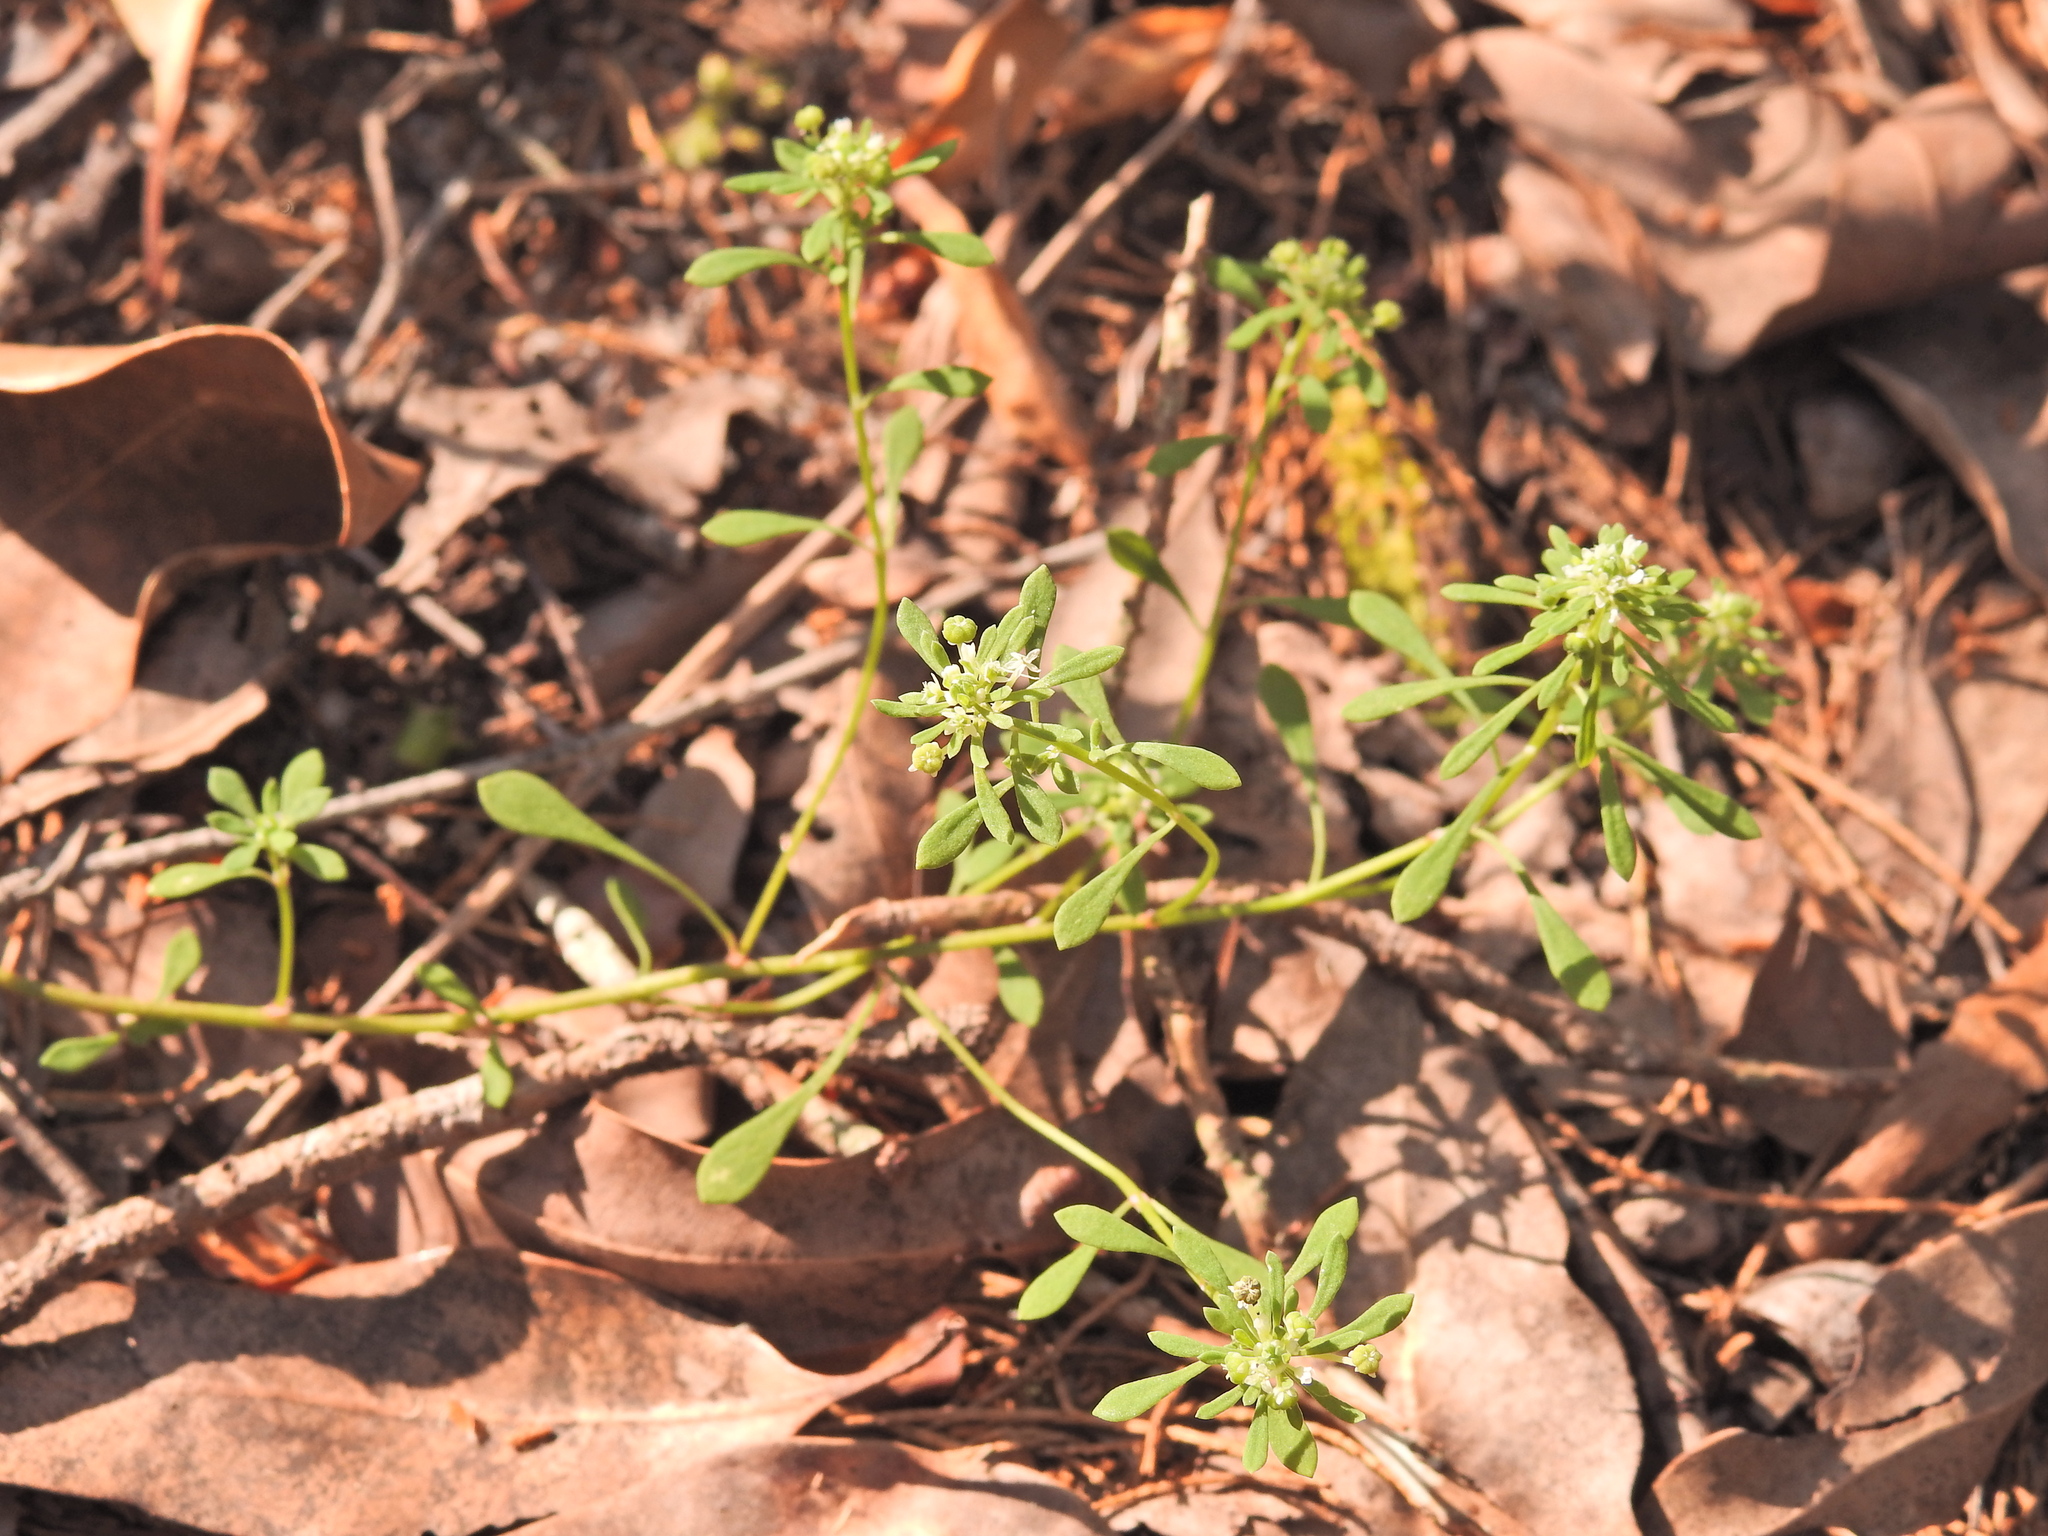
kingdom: Plantae
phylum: Tracheophyta
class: Magnoliopsida
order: Malpighiales
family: Phyllanthaceae
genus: Poranthera
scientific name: Poranthera microphylla
